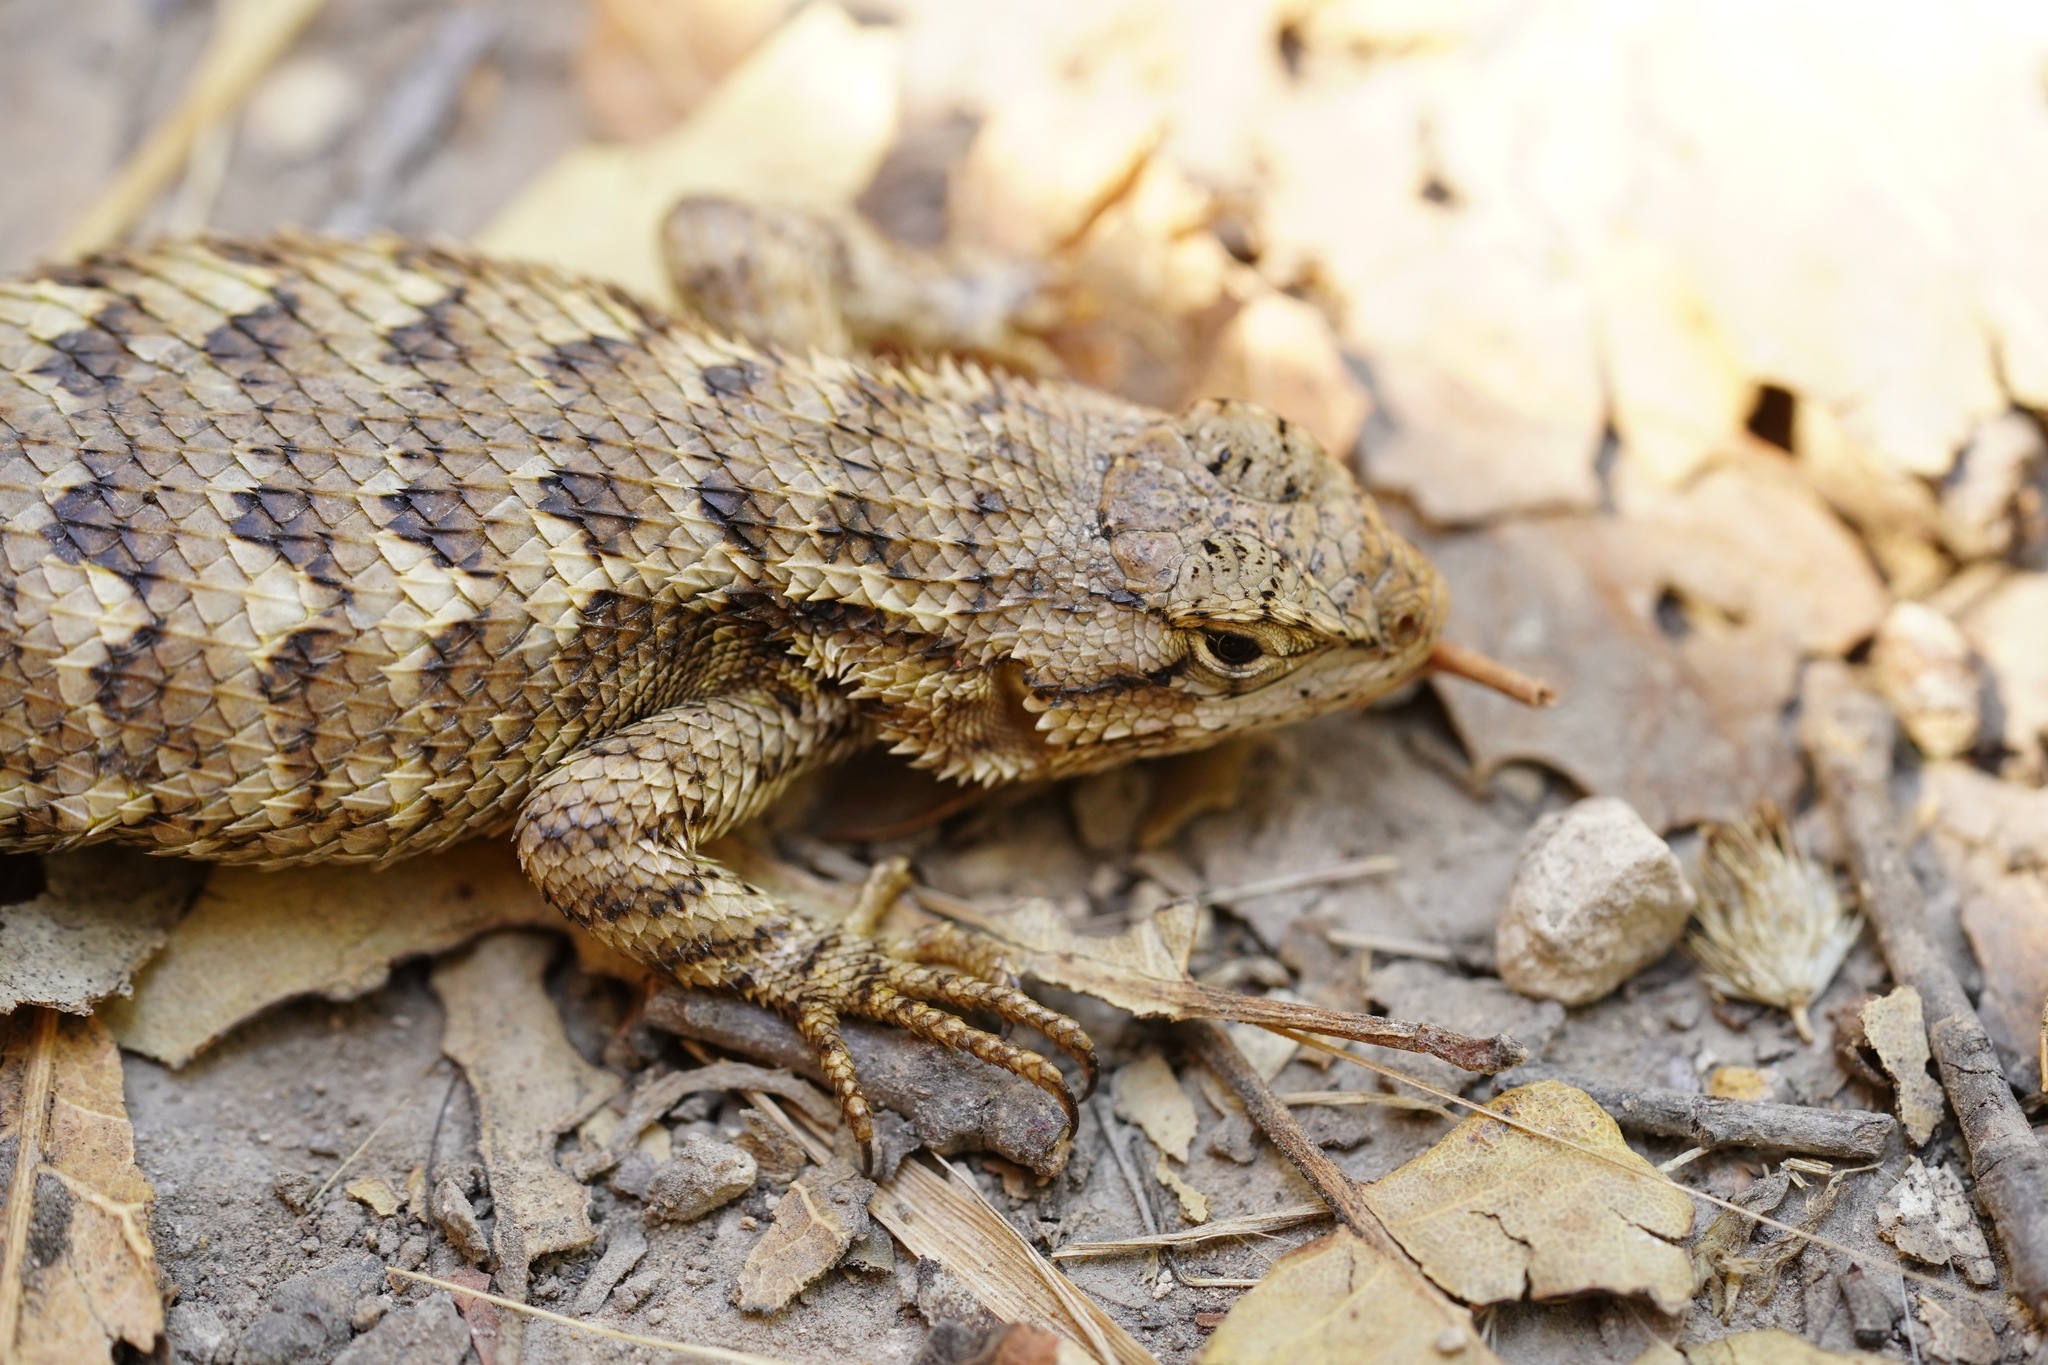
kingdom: Animalia
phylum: Chordata
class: Squamata
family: Phrynosomatidae
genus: Sceloporus
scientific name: Sceloporus occidentalis
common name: Western fence lizard
